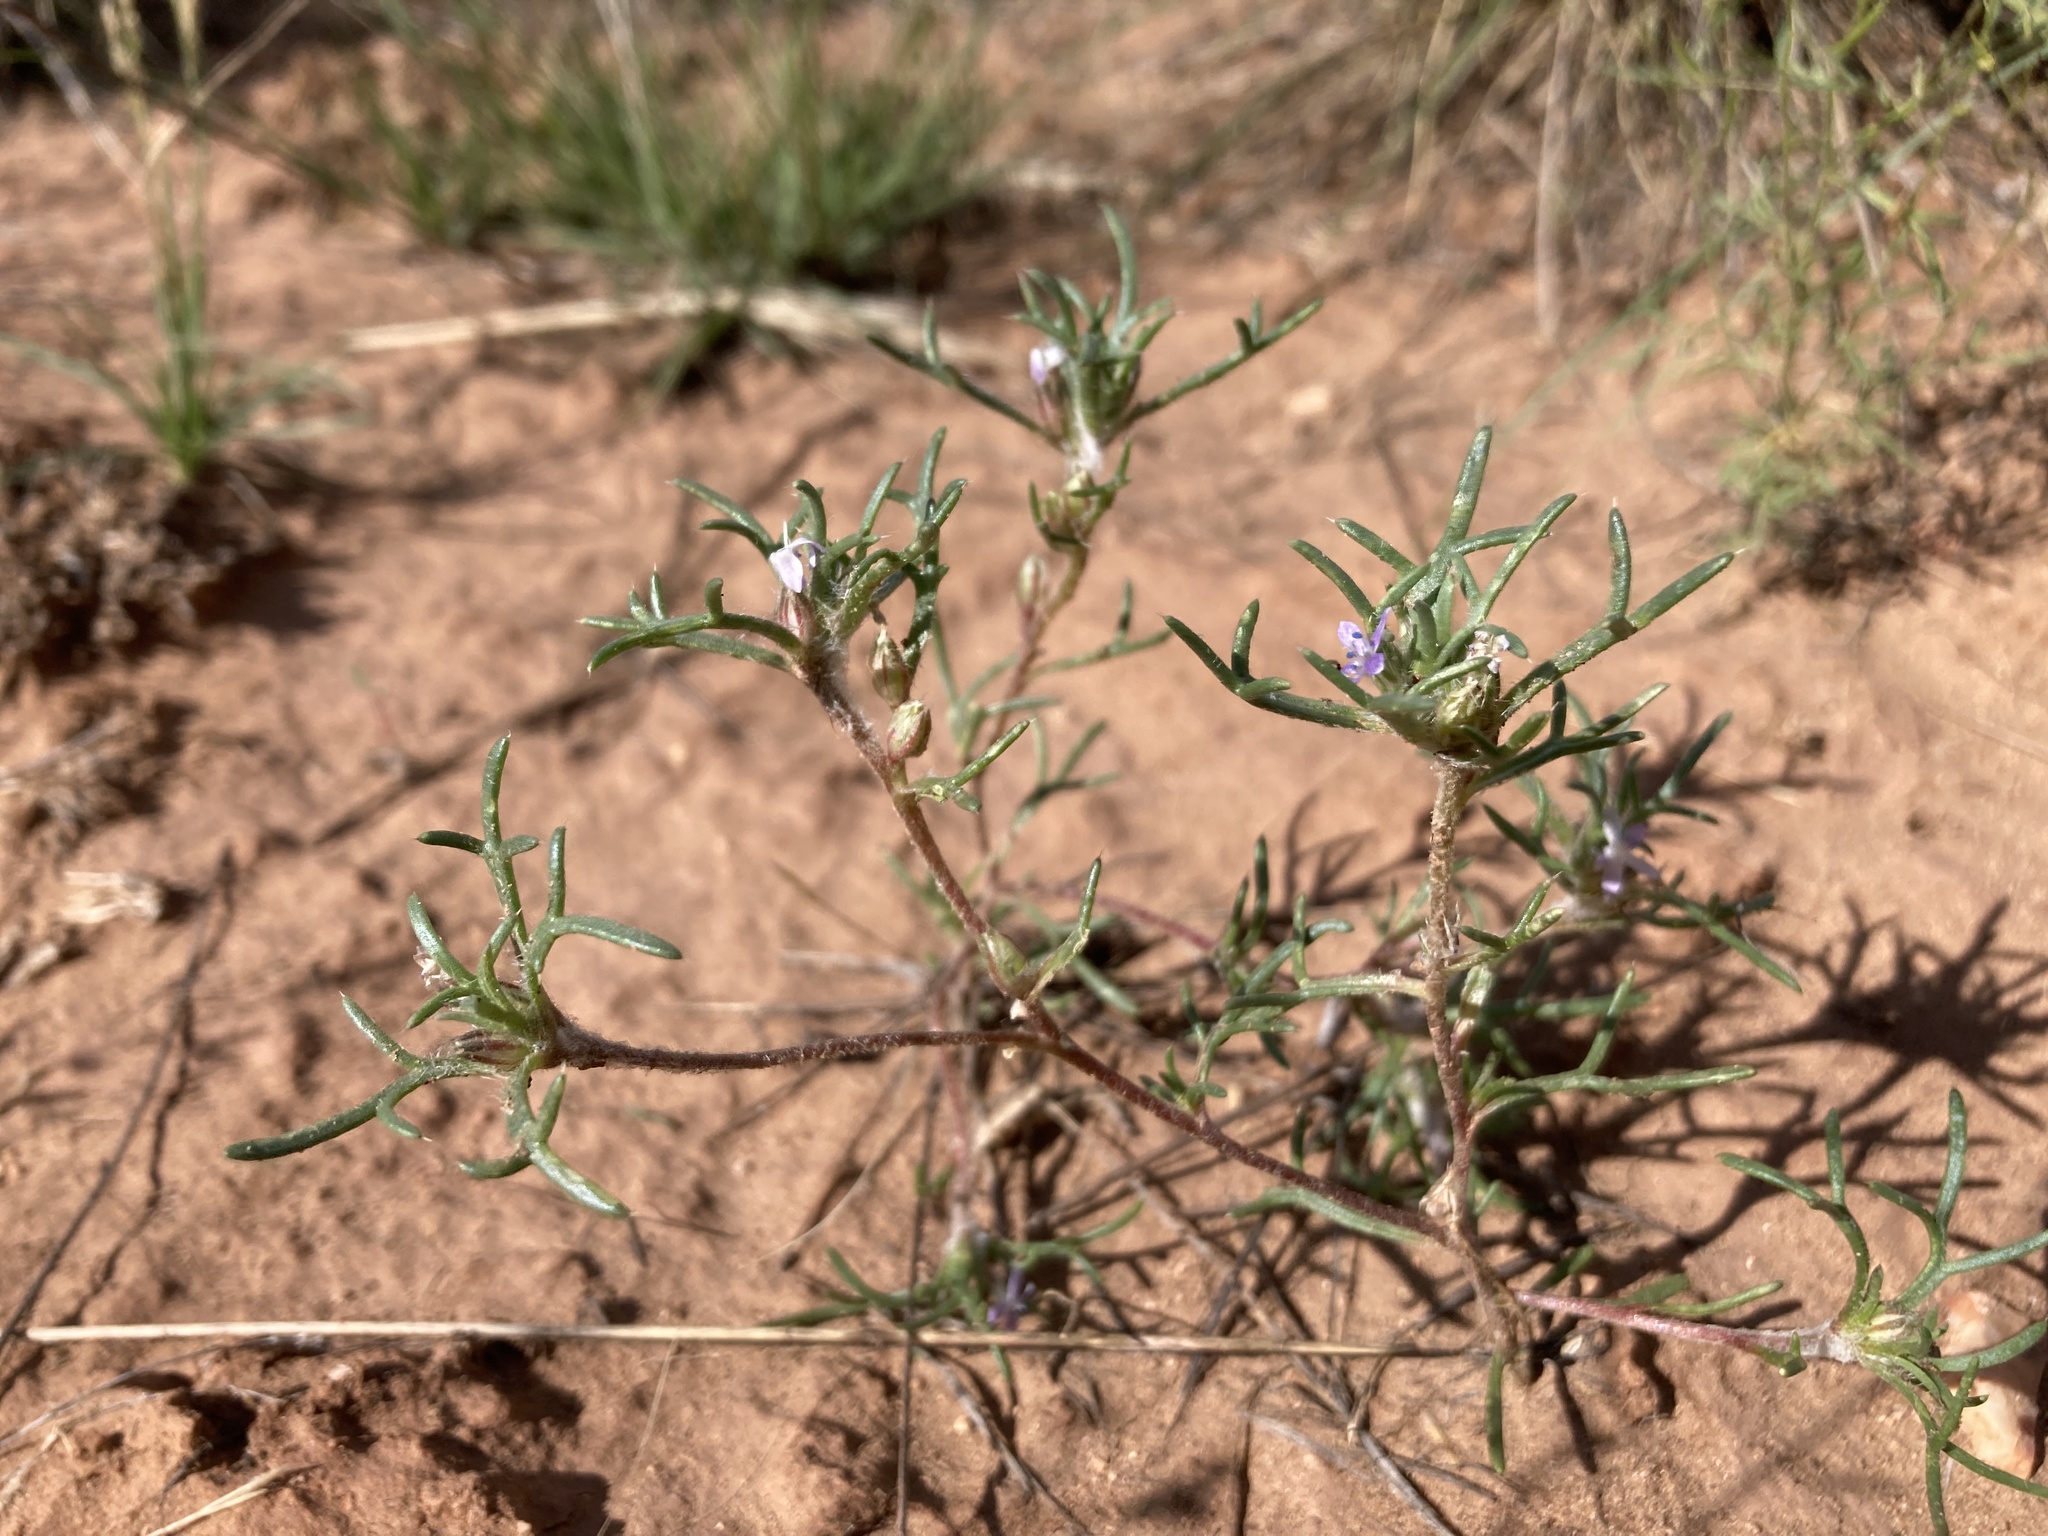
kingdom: Plantae
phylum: Tracheophyta
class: Magnoliopsida
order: Ericales
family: Polemoniaceae
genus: Ipomopsis
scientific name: Ipomopsis pumila
